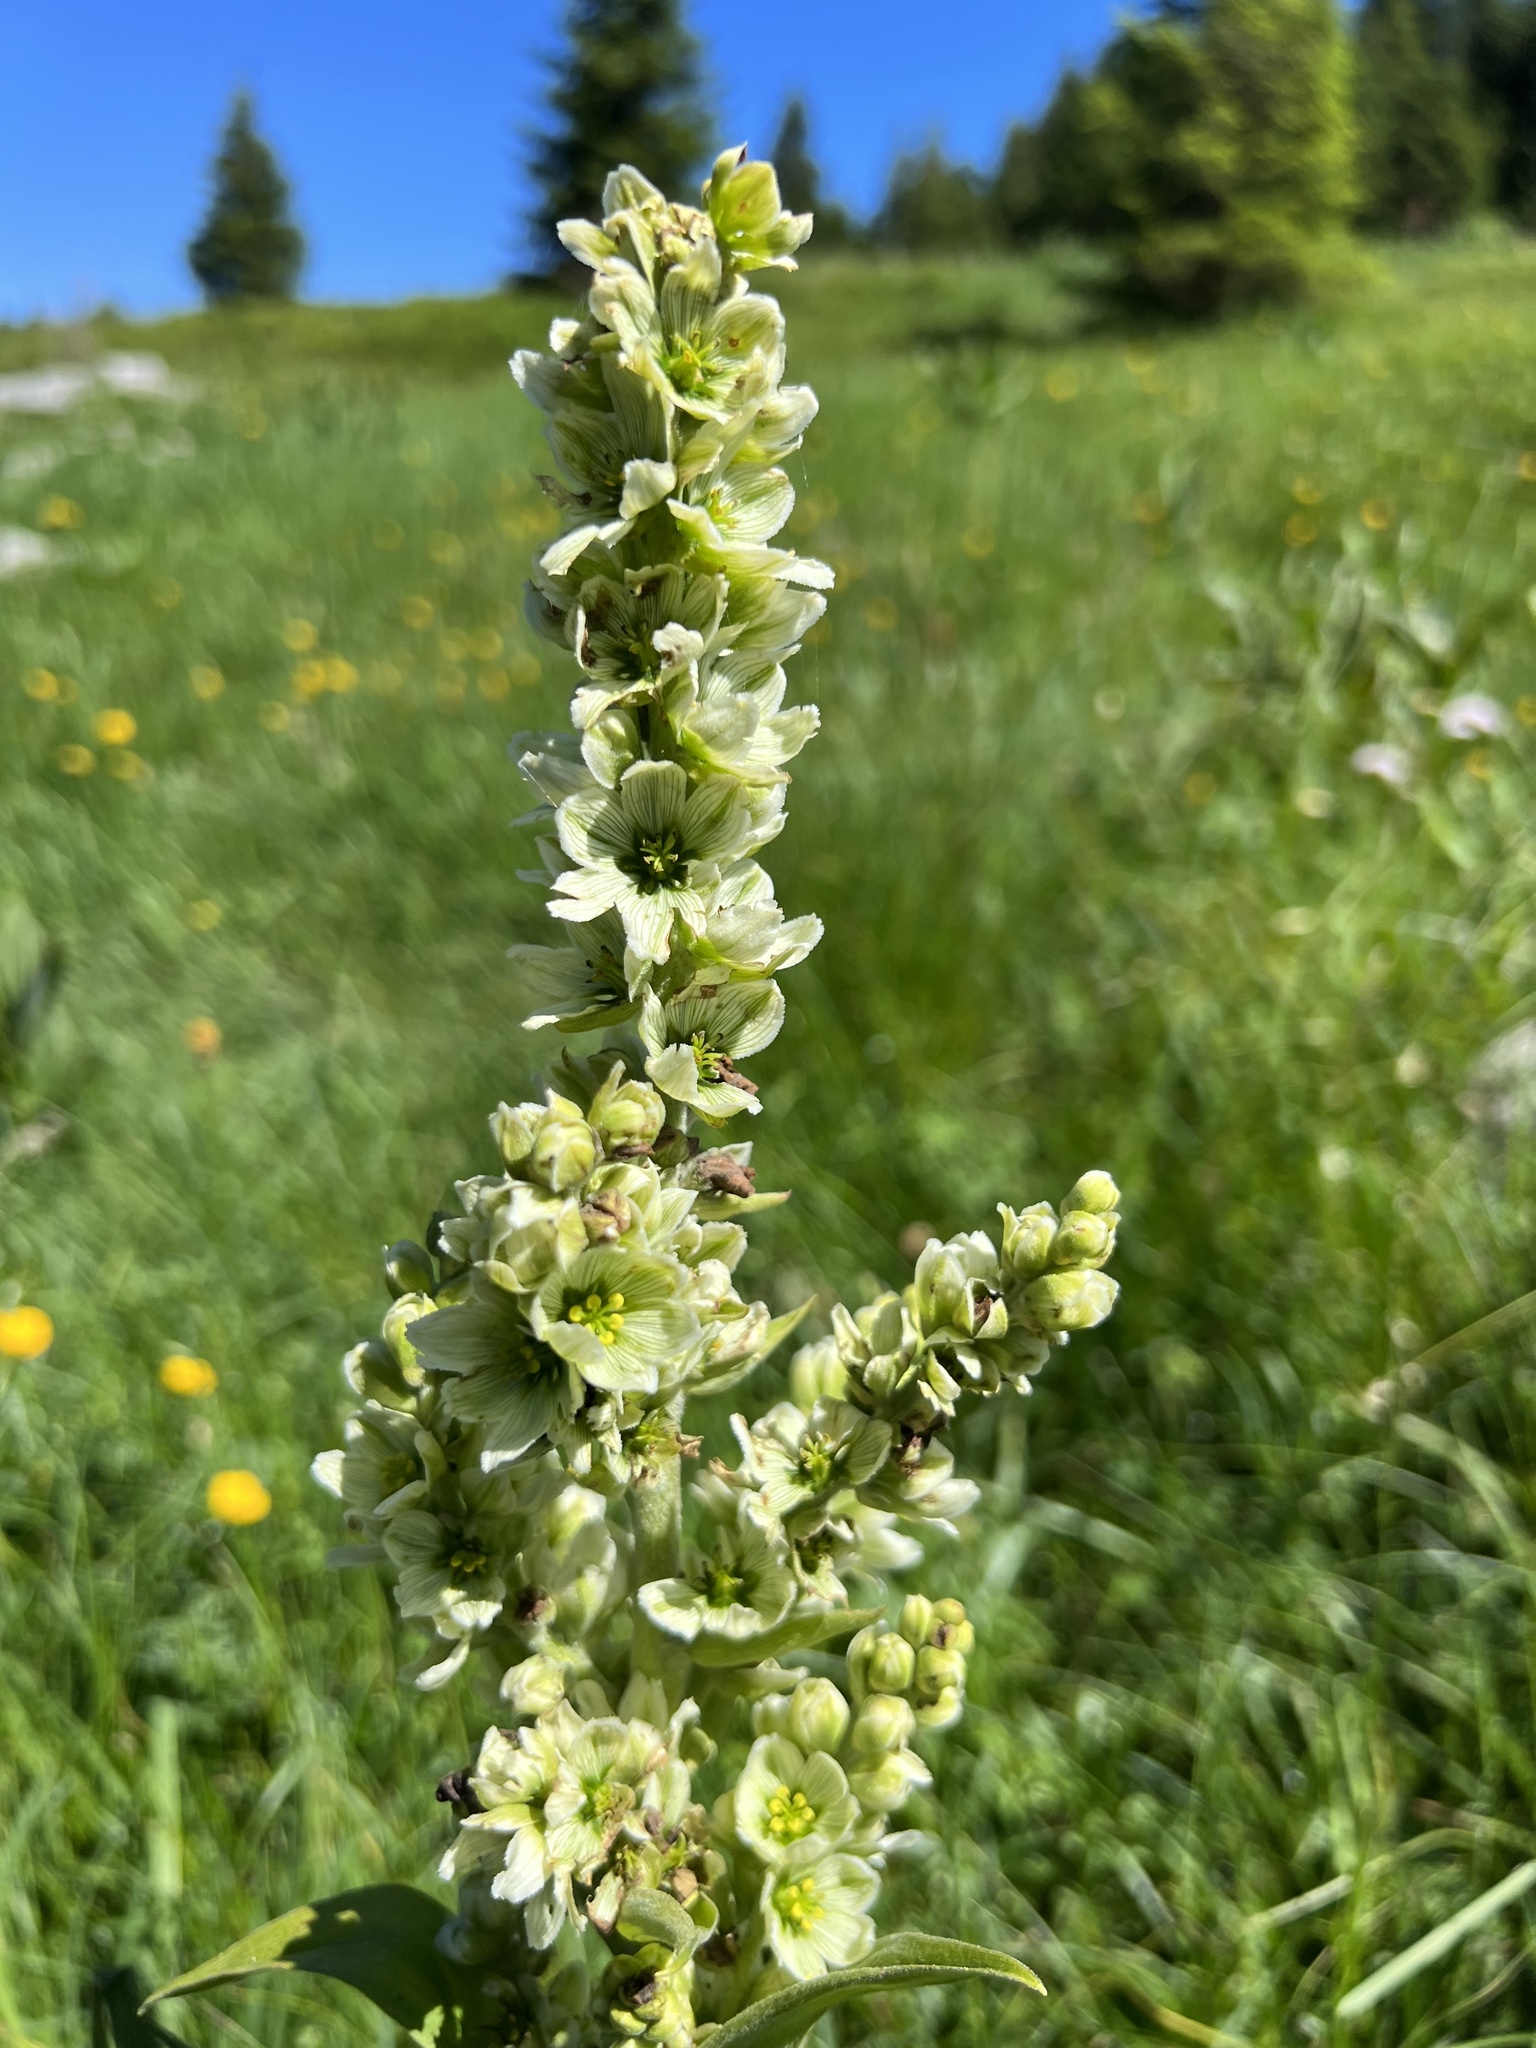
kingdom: Plantae
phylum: Tracheophyta
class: Liliopsida
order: Liliales
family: Melanthiaceae
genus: Veratrum
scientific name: Veratrum album
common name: White veratrum
